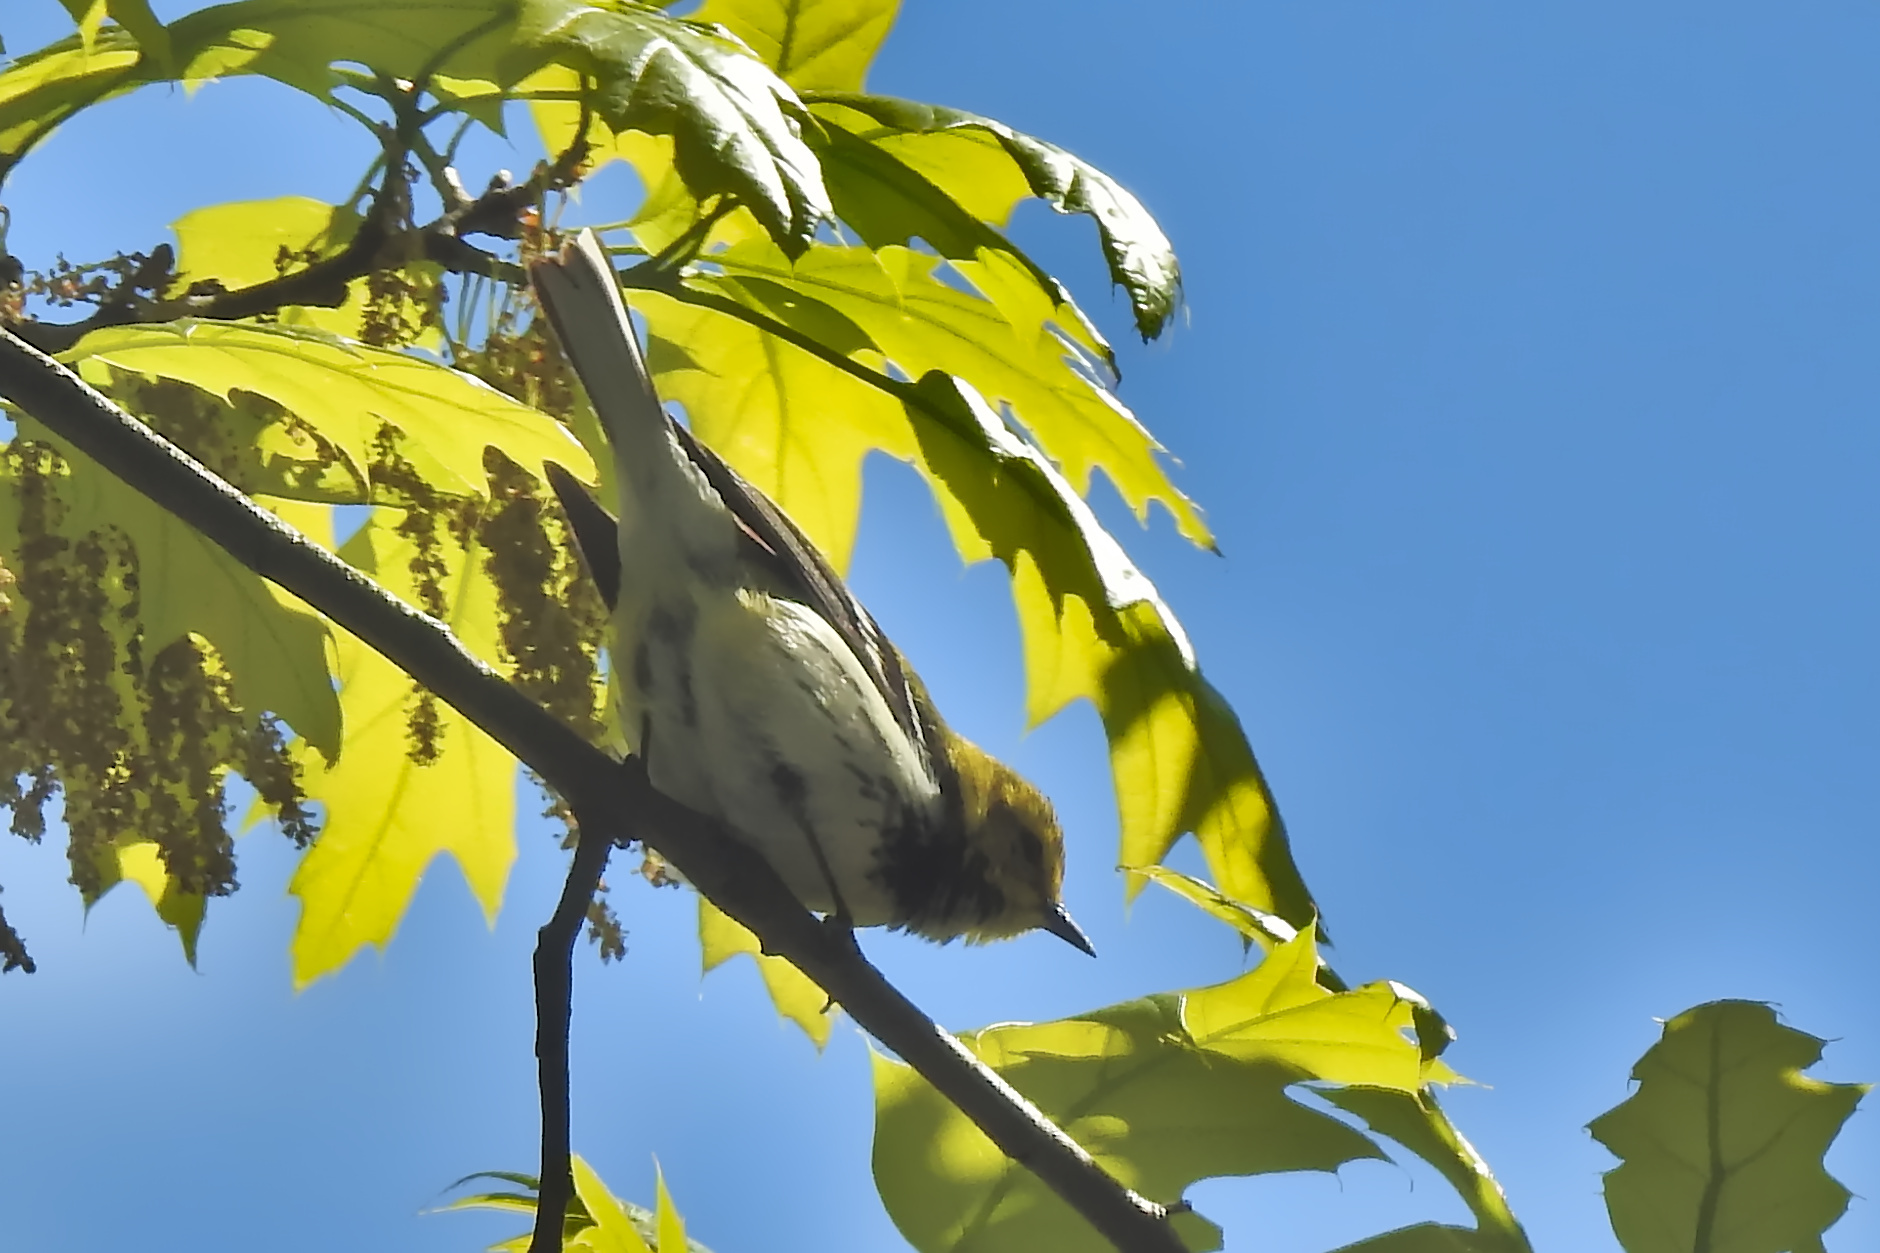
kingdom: Animalia
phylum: Chordata
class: Aves
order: Passeriformes
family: Parulidae
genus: Setophaga
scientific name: Setophaga virens
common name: Black-throated green warbler
